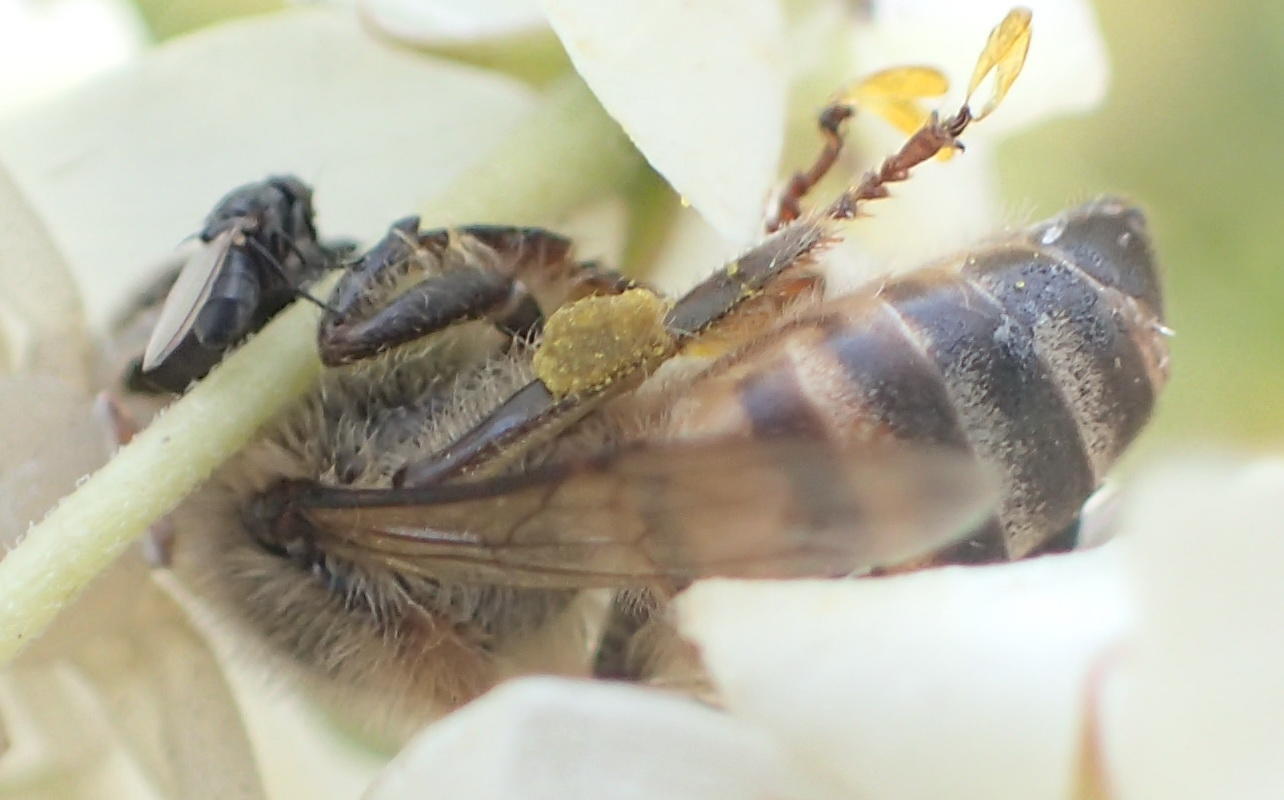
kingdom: Animalia
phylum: Arthropoda
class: Insecta
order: Hymenoptera
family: Apidae
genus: Apis
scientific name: Apis mellifera
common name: Honey bee
